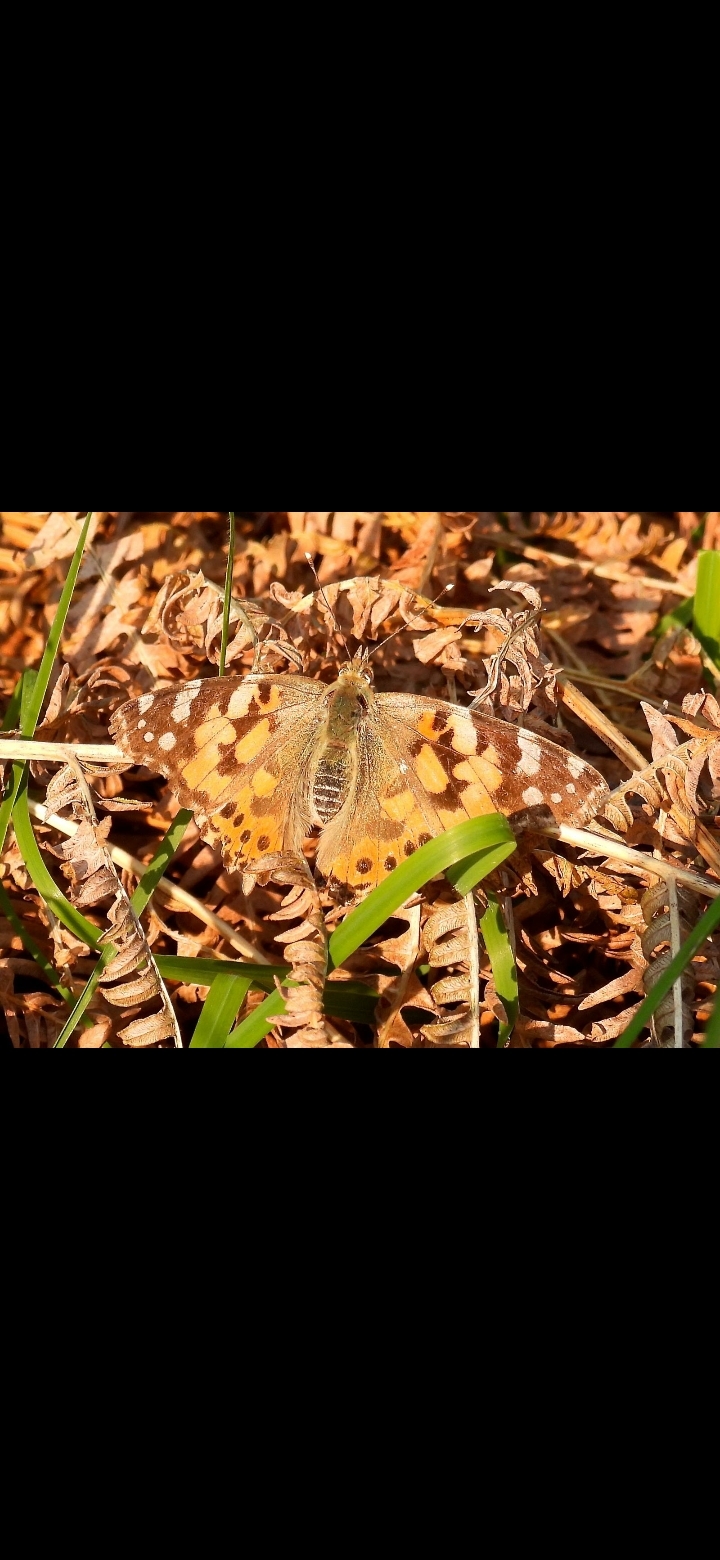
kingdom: Animalia
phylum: Arthropoda
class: Insecta
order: Lepidoptera
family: Nymphalidae
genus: Vanessa
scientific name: Vanessa cardui
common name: Painted lady
